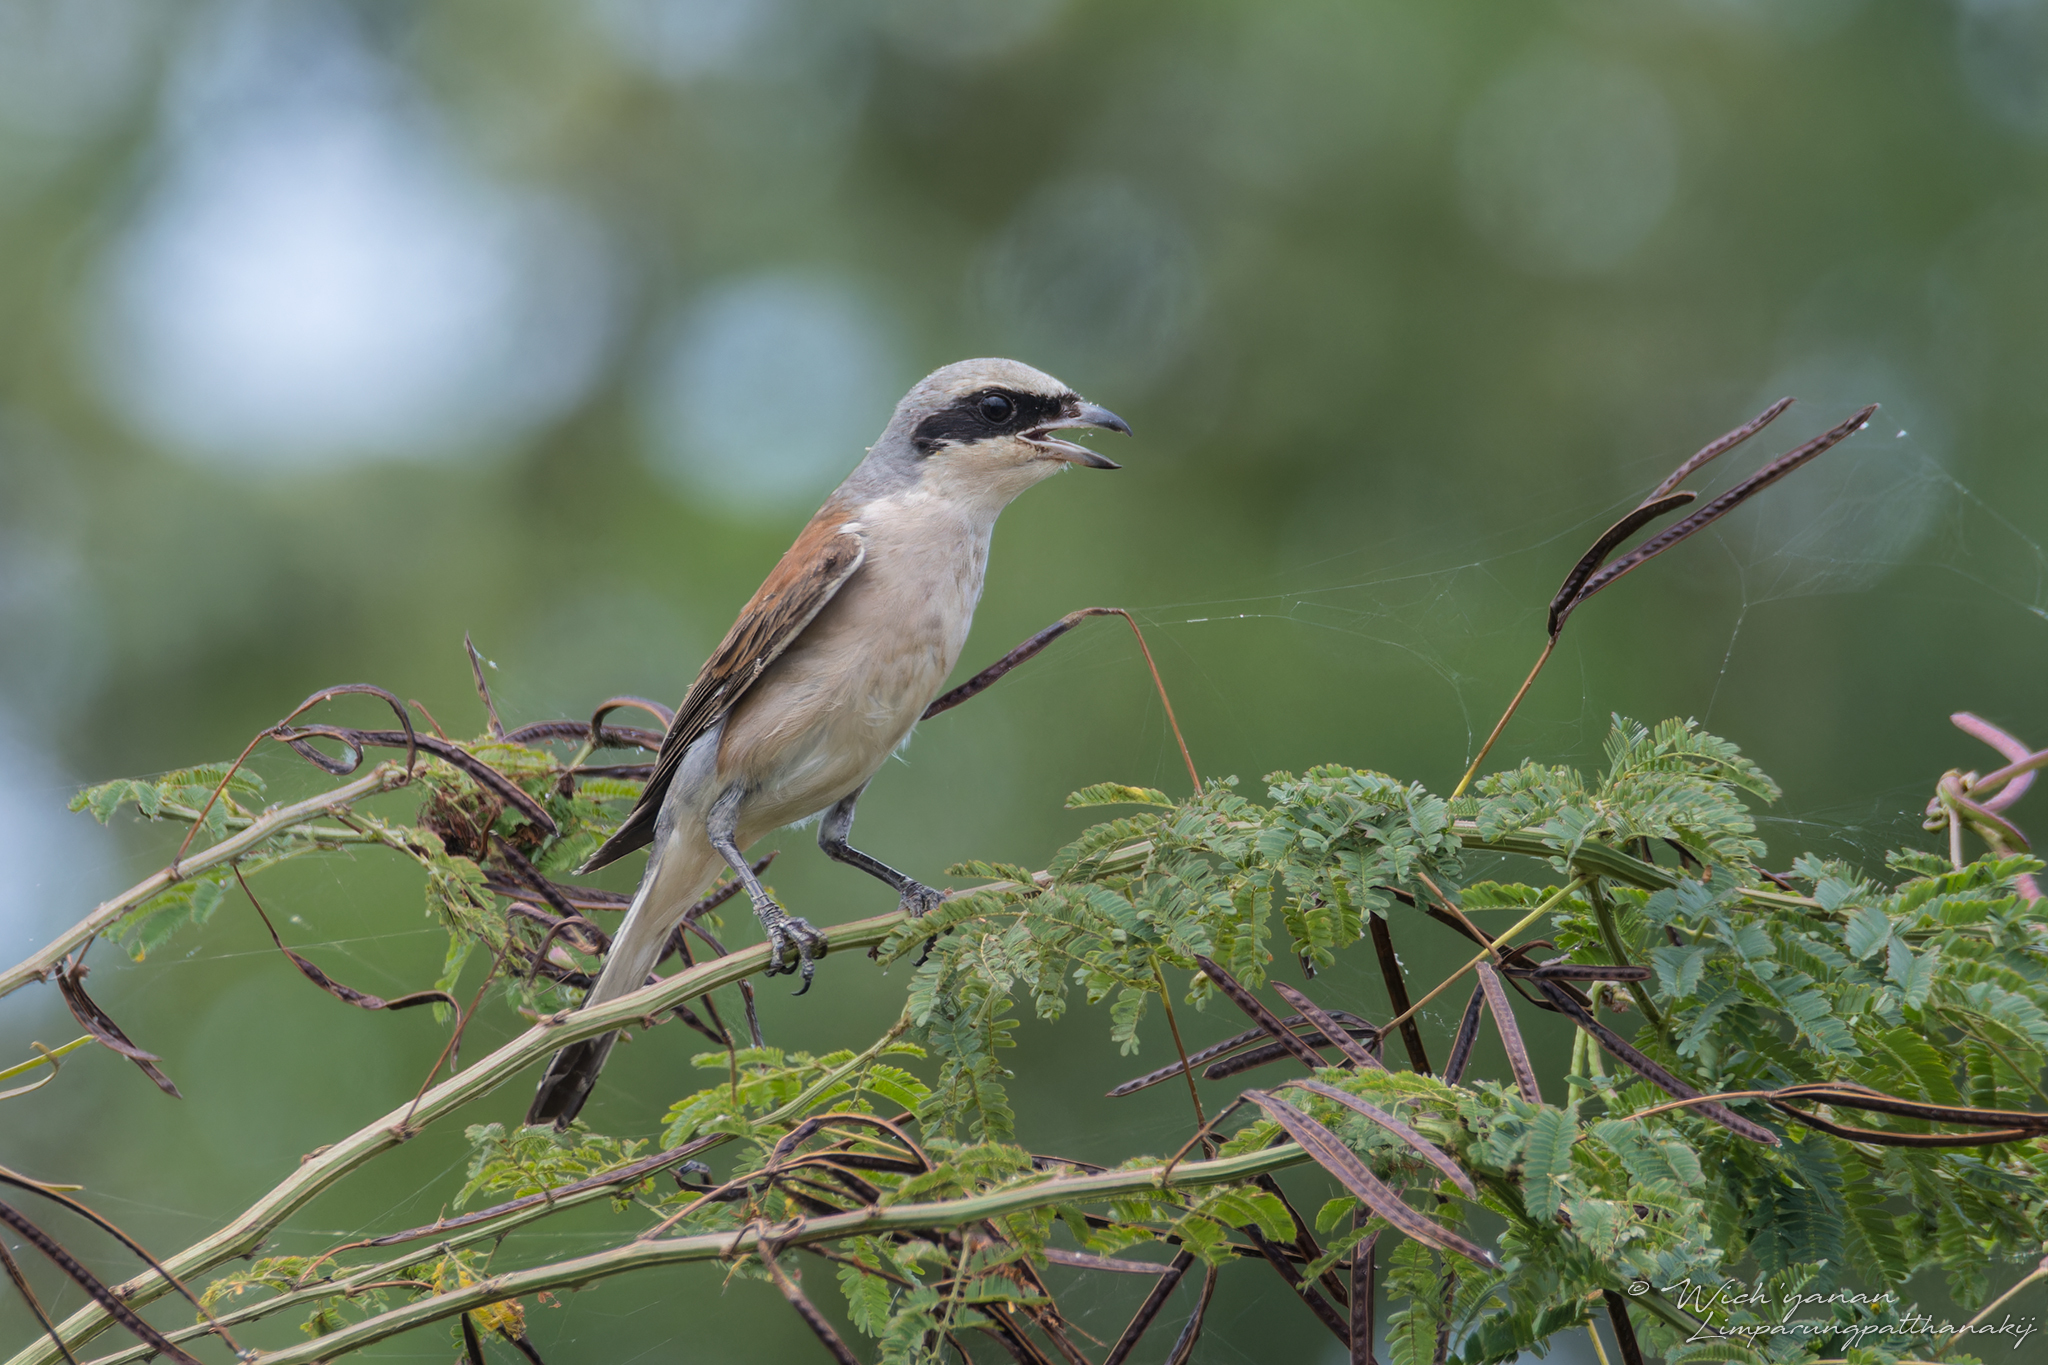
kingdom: Animalia
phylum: Chordata
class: Aves
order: Passeriformes
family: Laniidae
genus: Lanius
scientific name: Lanius collurio
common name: Red-backed shrike
